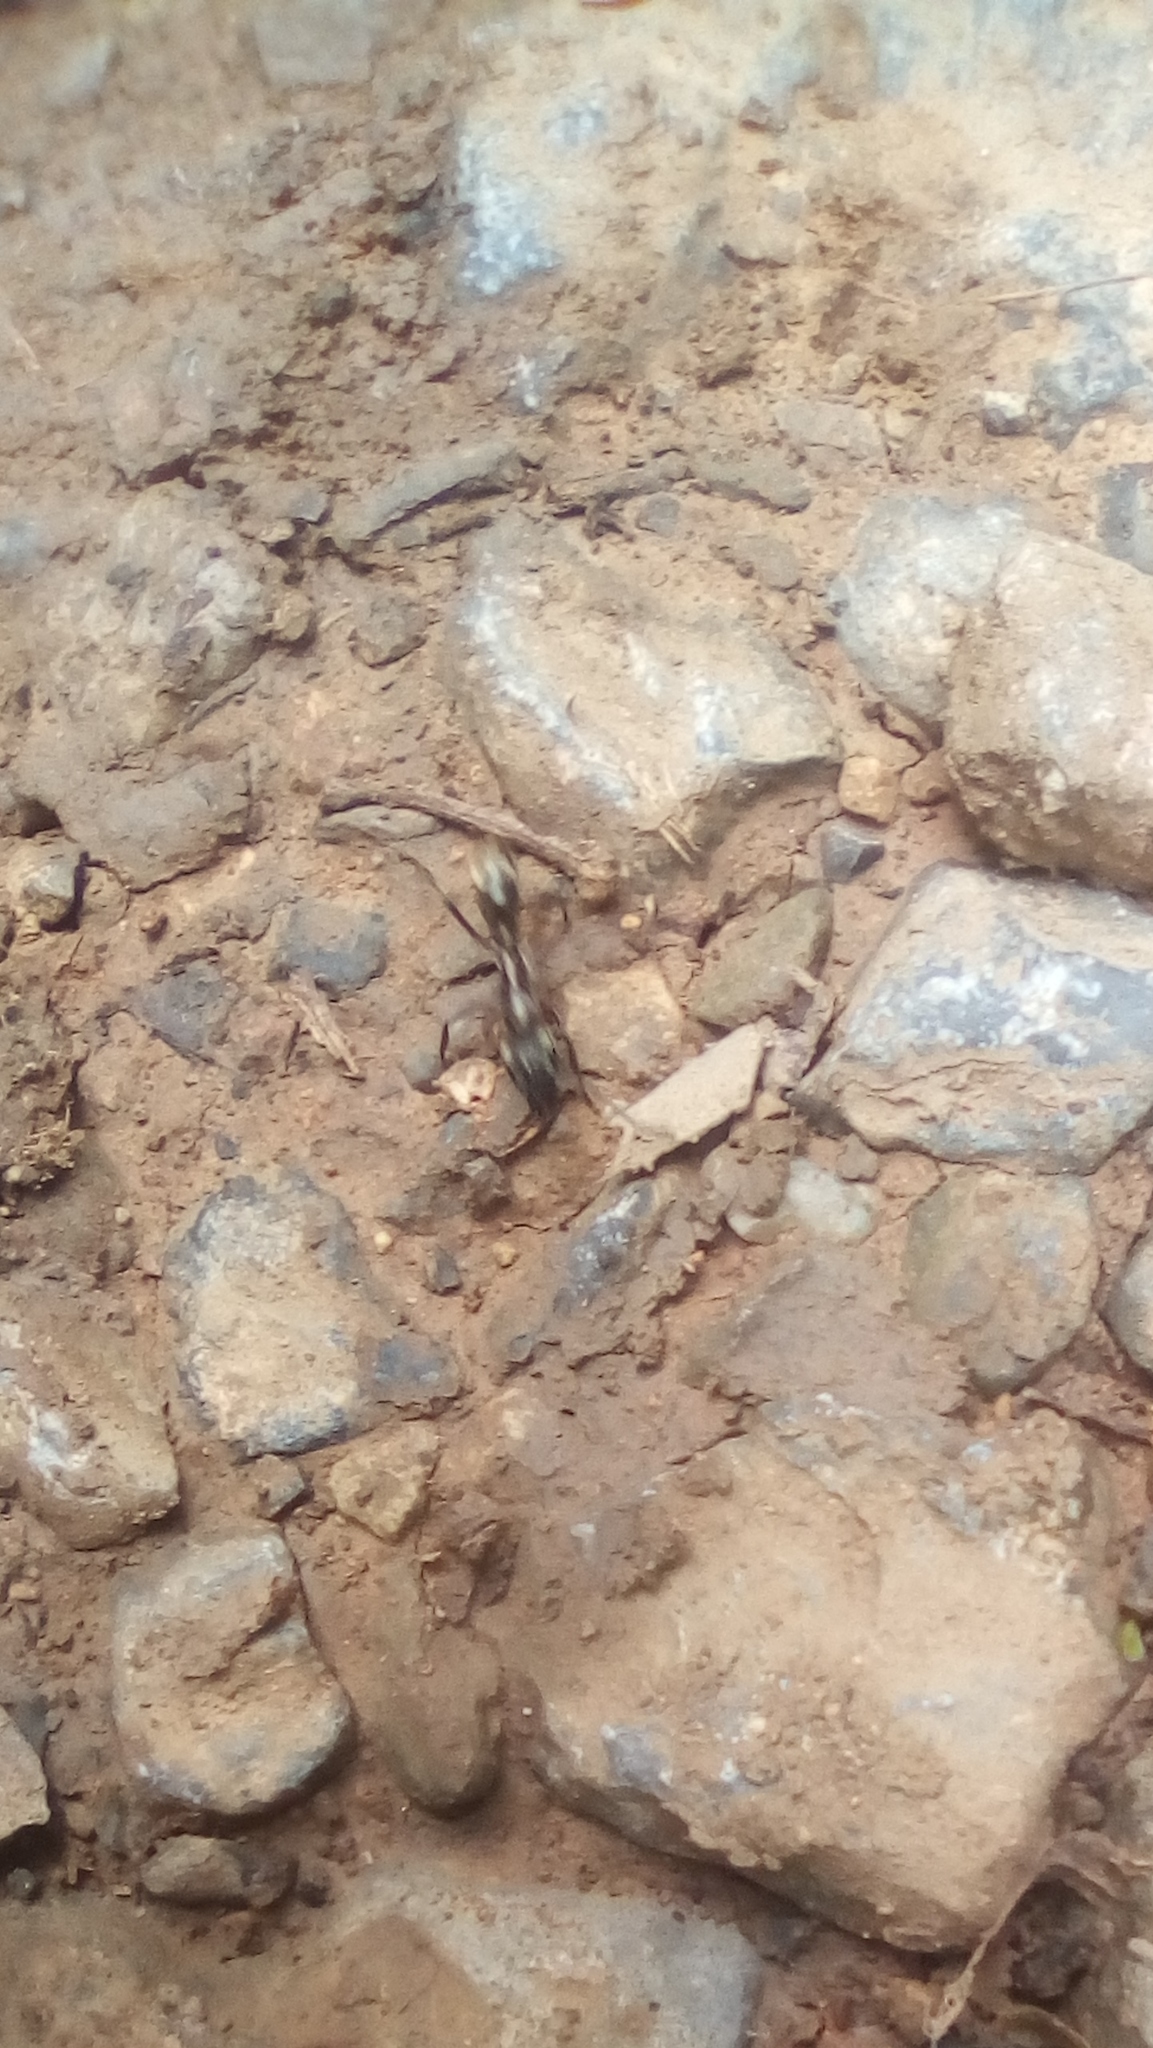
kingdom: Animalia
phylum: Arthropoda
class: Insecta
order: Hymenoptera
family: Formicidae
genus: Pachycondyla
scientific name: Pachycondyla villosa
